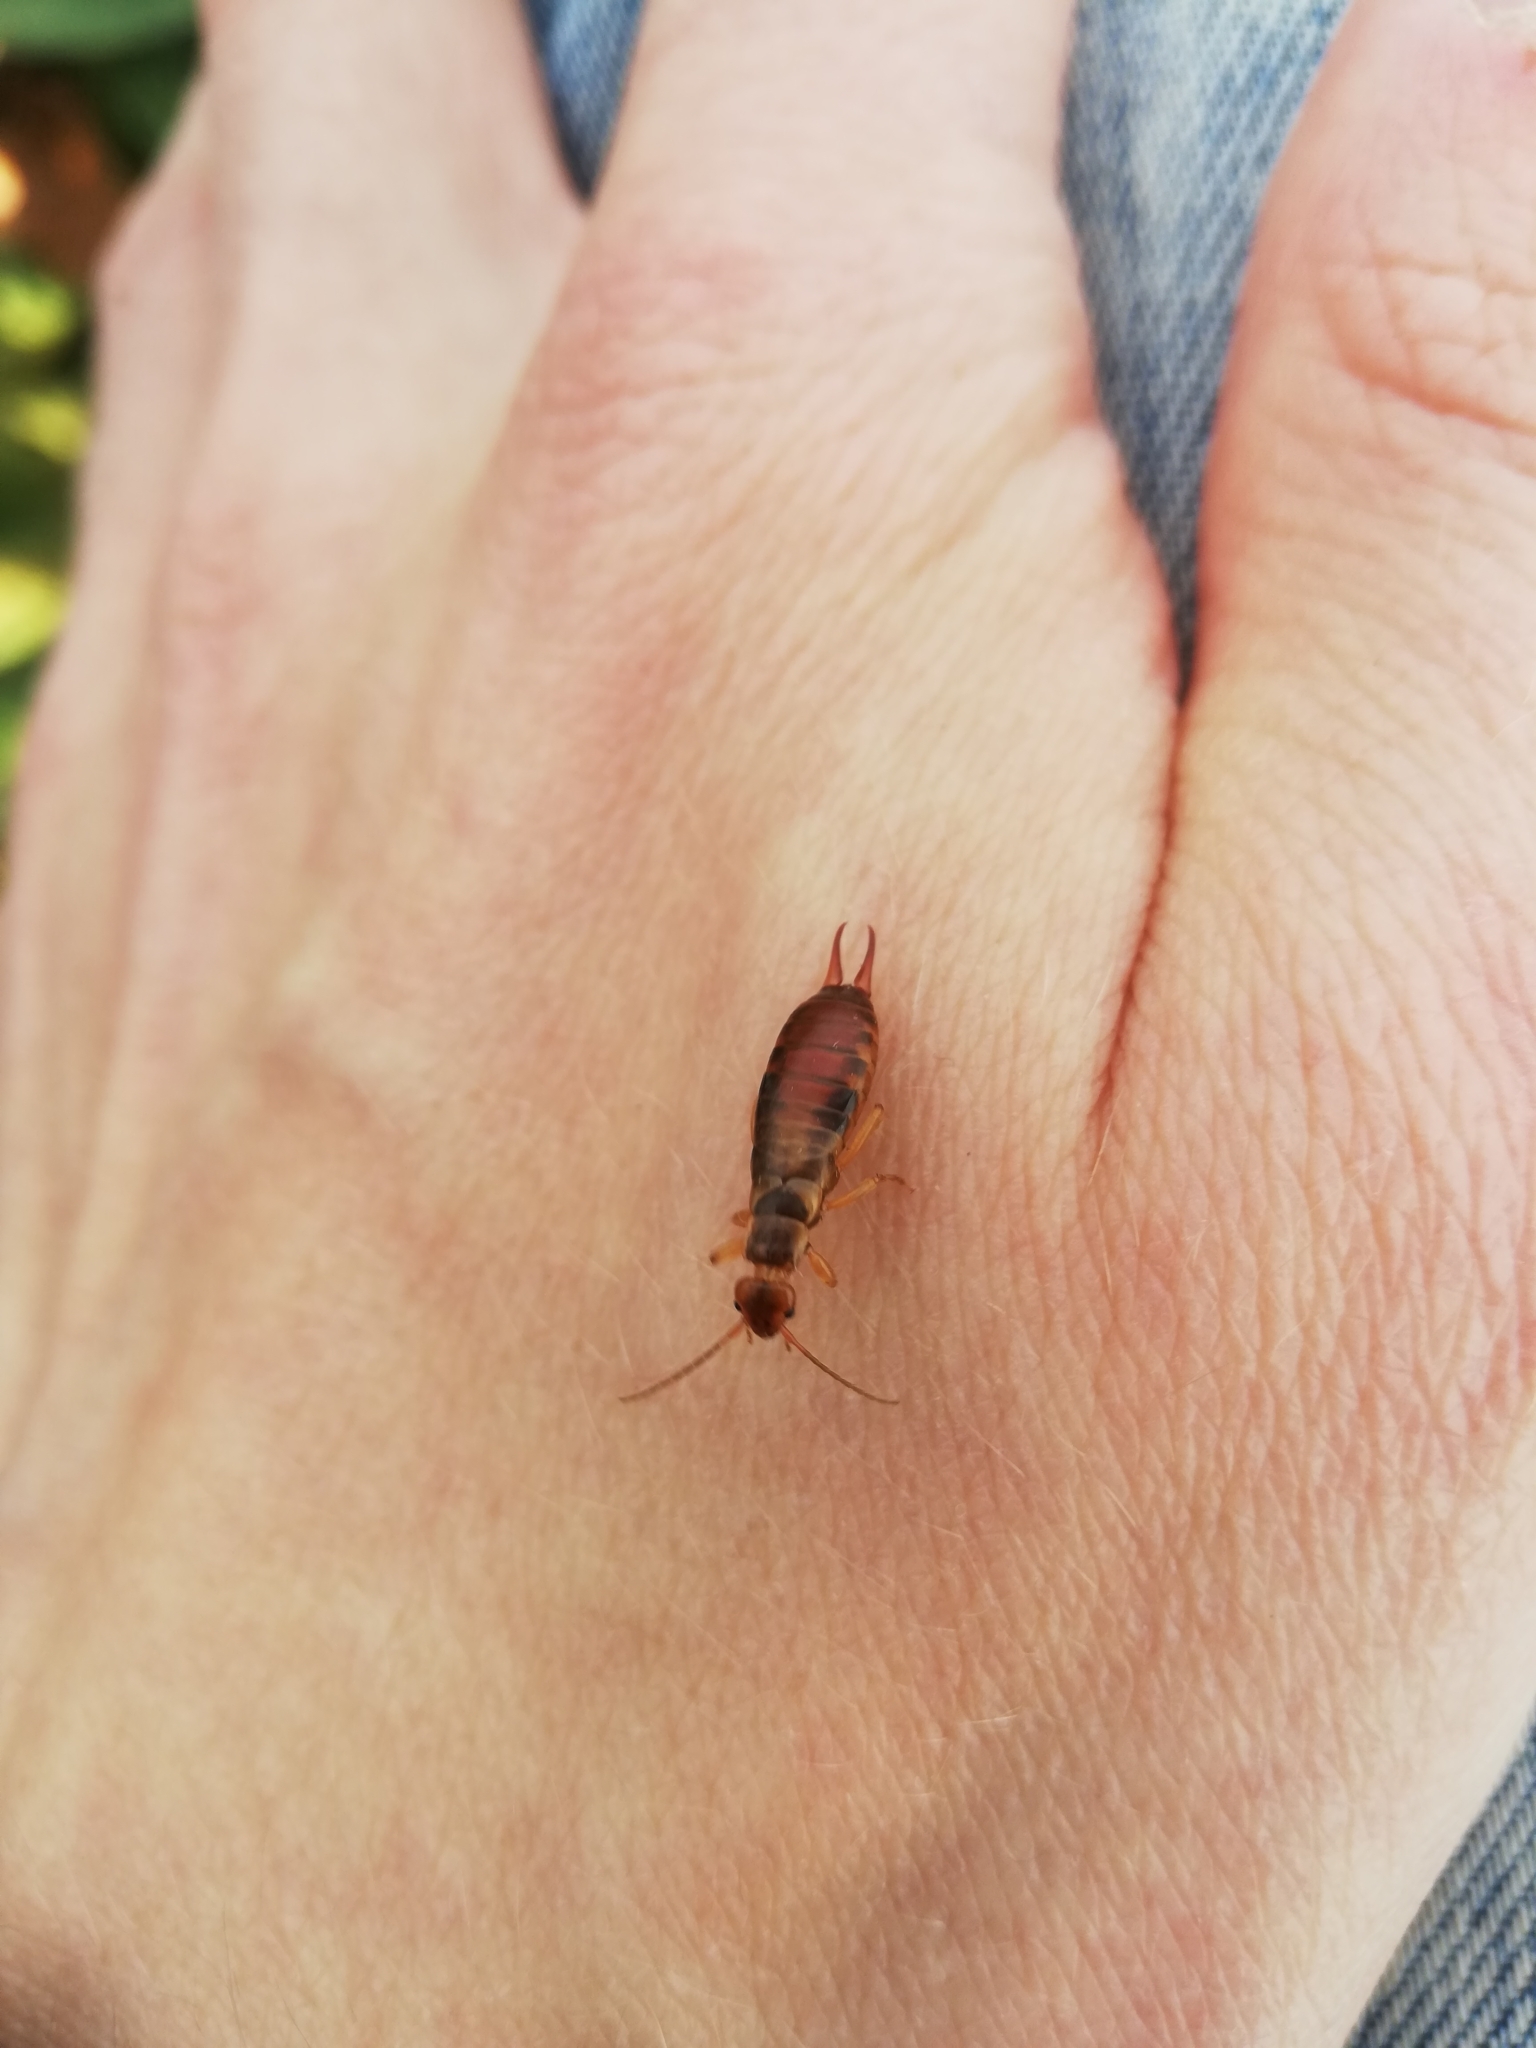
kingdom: Animalia
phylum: Arthropoda
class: Insecta
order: Dermaptera
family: Forficulidae
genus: Chelidurella
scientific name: Chelidurella acanthopygia
